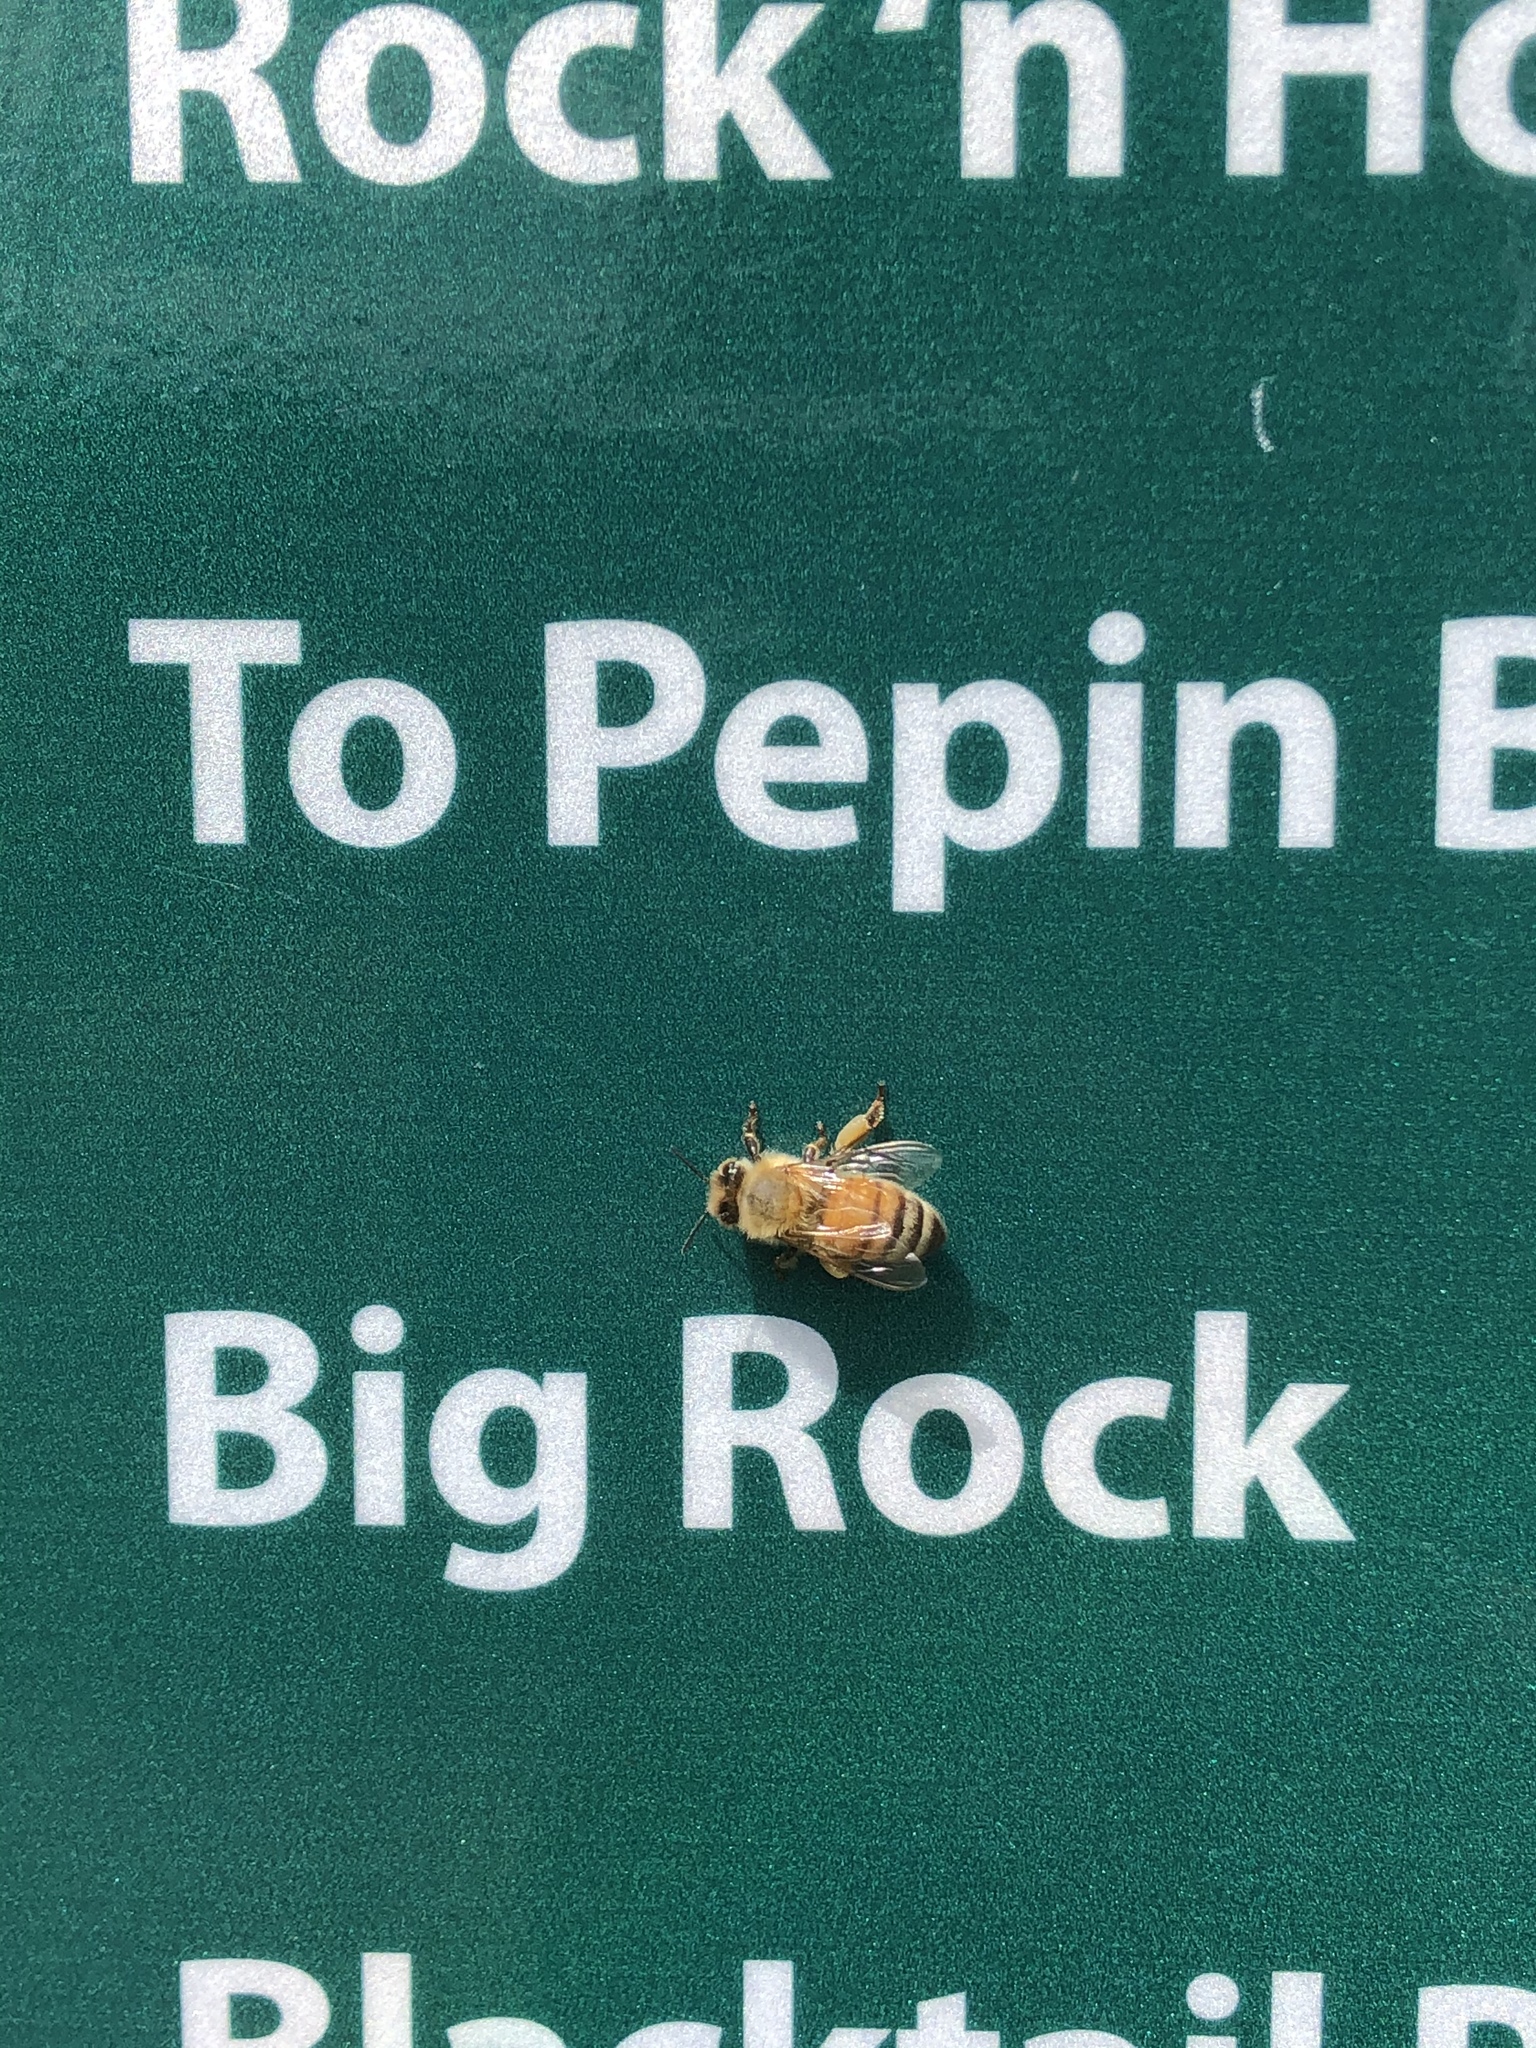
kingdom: Animalia
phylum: Arthropoda
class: Insecta
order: Hymenoptera
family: Apidae
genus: Apis
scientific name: Apis mellifera
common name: Honey bee
